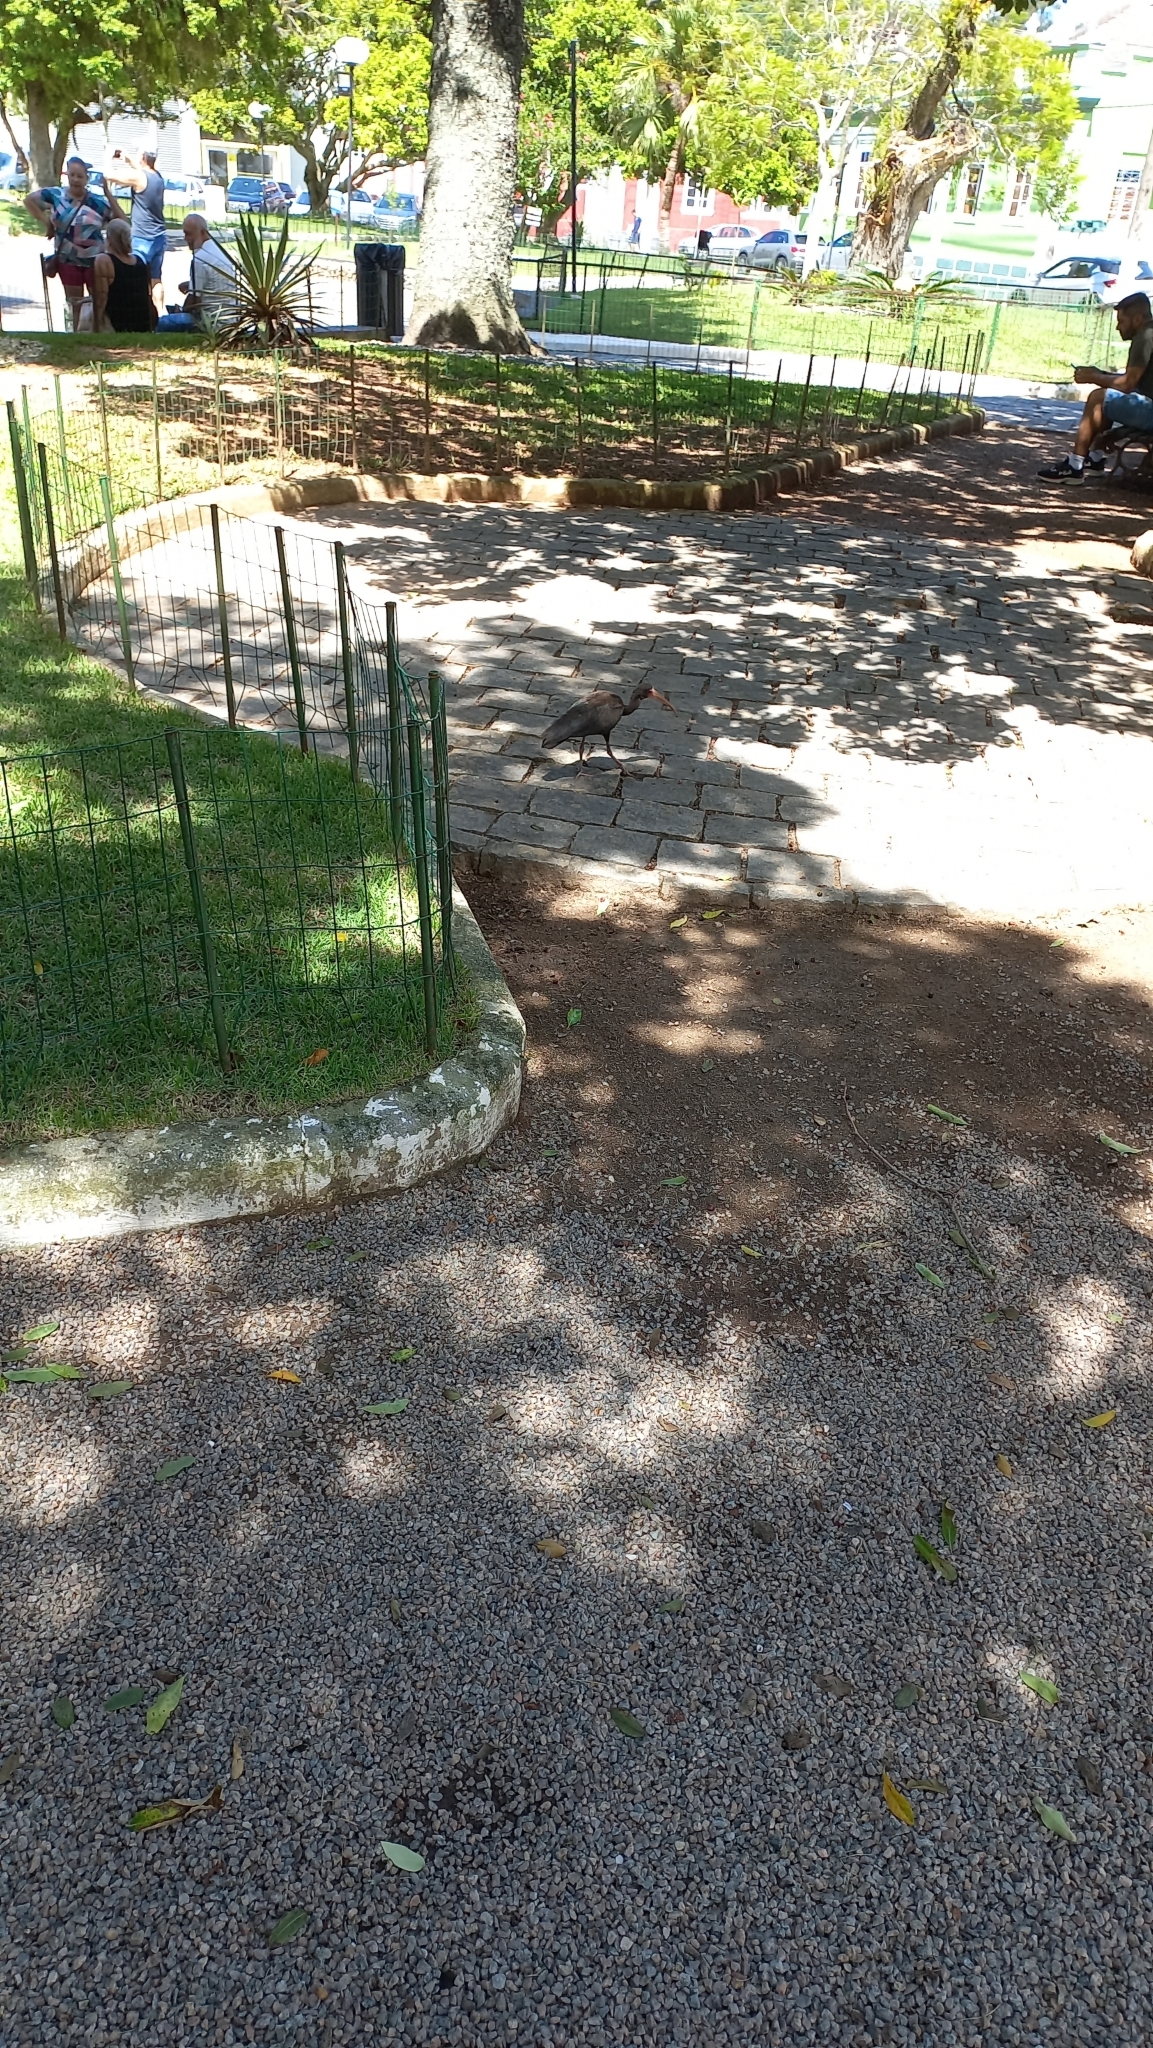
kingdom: Animalia
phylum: Chordata
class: Aves
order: Pelecaniformes
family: Threskiornithidae
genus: Phimosus
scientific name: Phimosus infuscatus
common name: Bare-faced ibis
